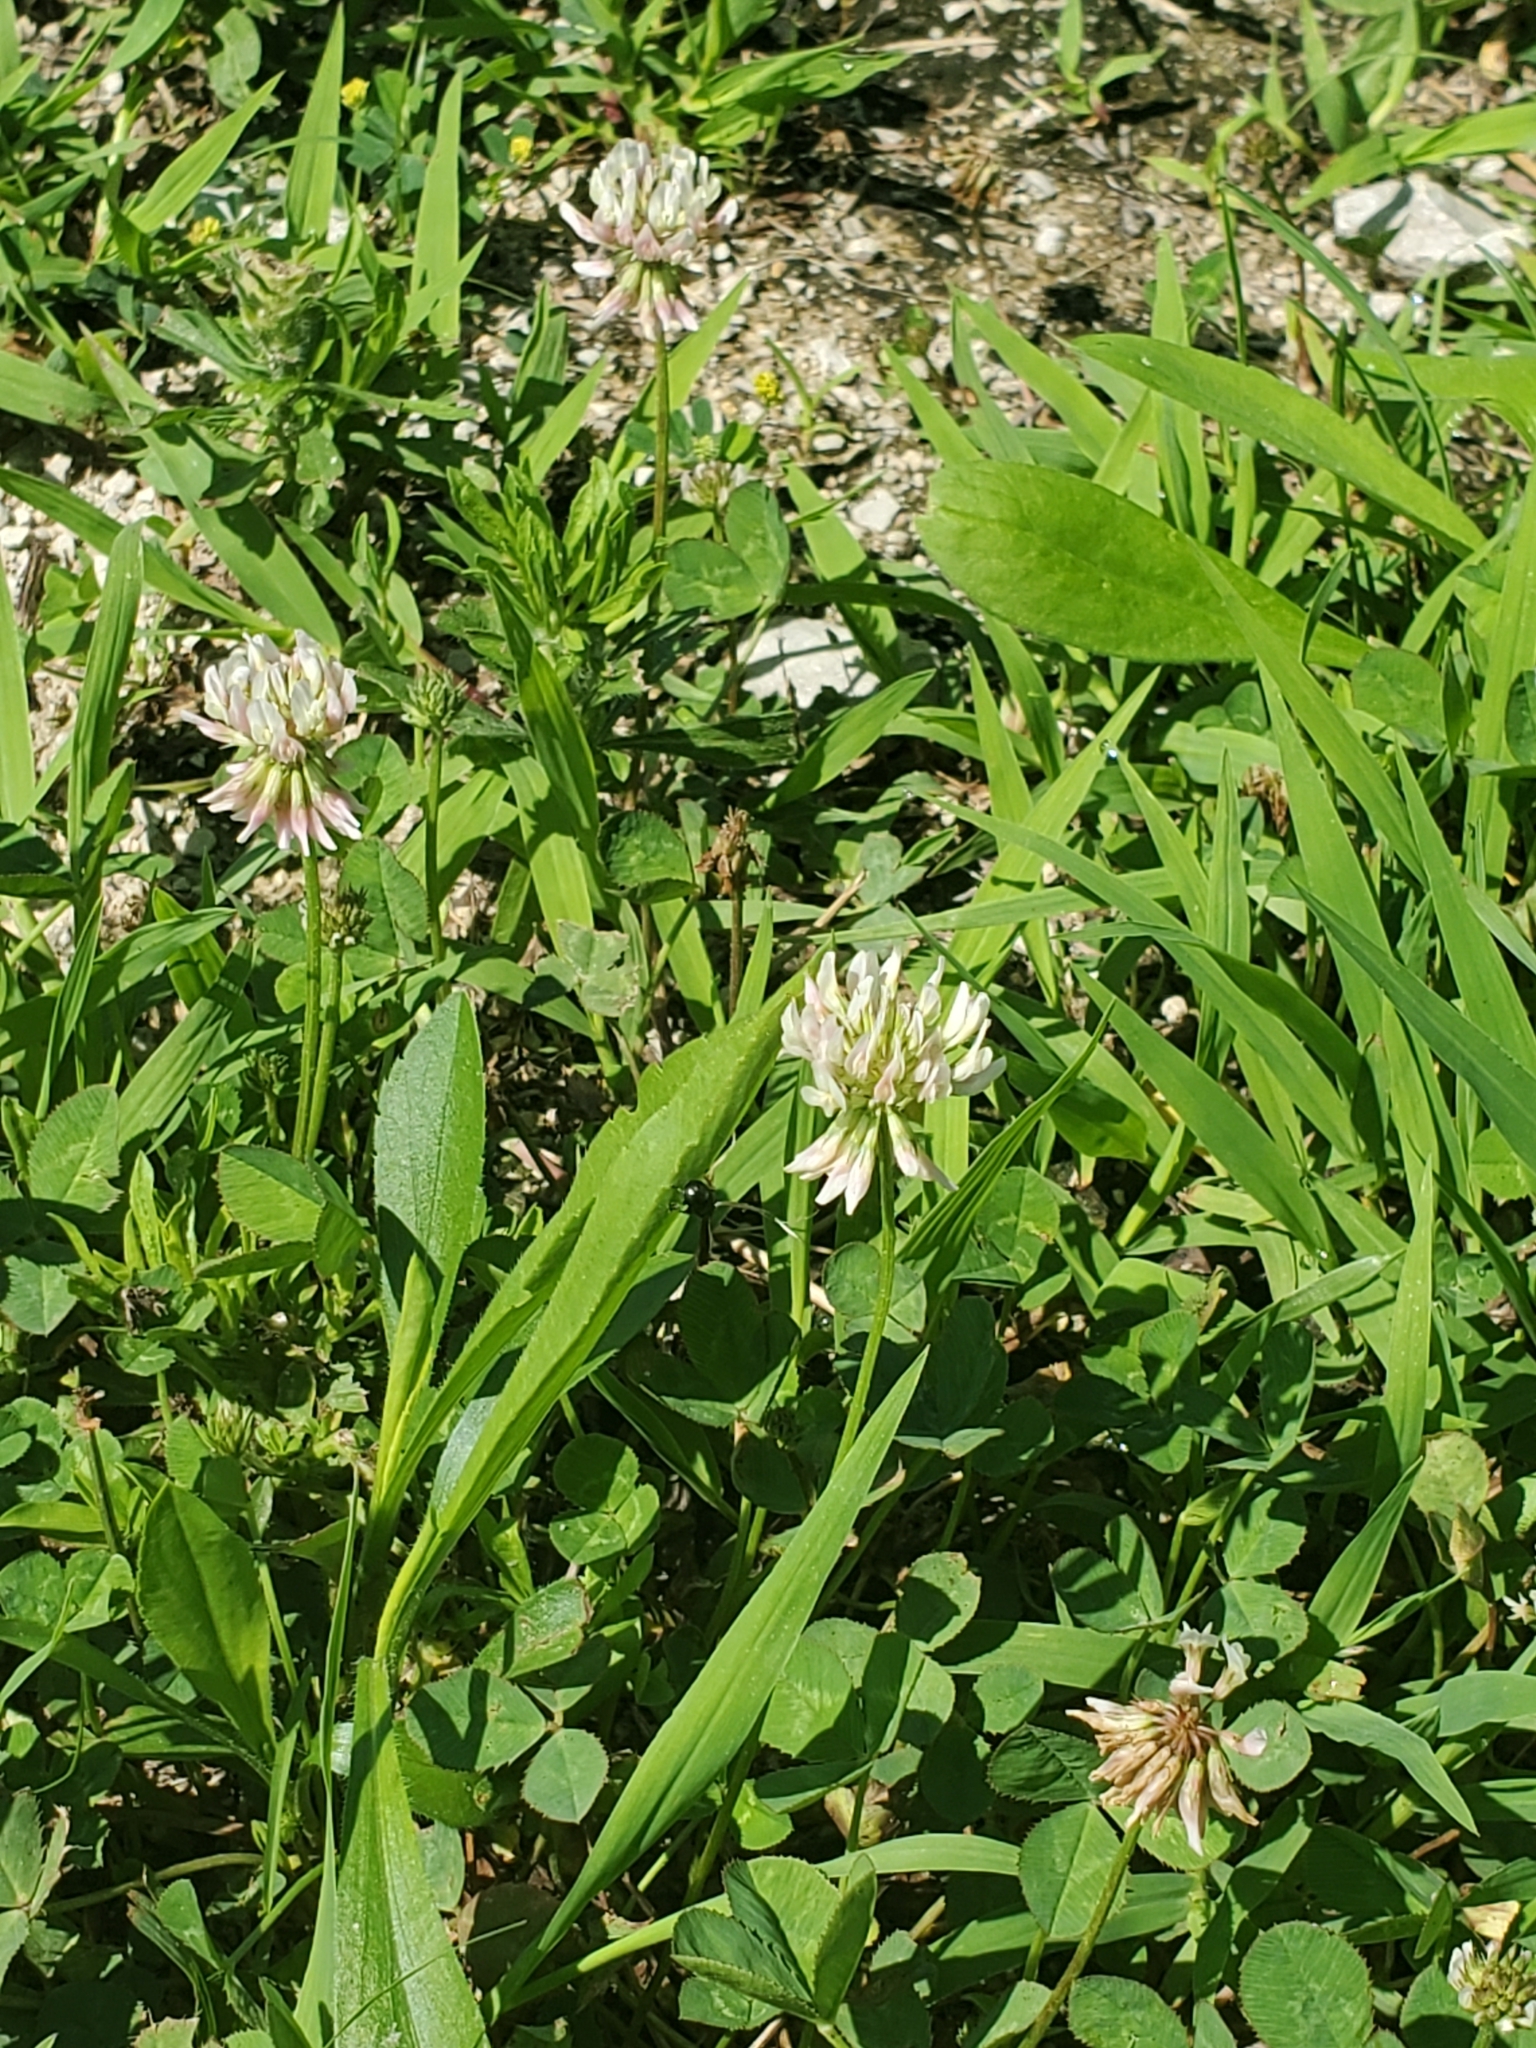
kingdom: Plantae
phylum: Tracheophyta
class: Magnoliopsida
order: Fabales
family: Fabaceae
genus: Trifolium
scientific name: Trifolium repens
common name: White clover
